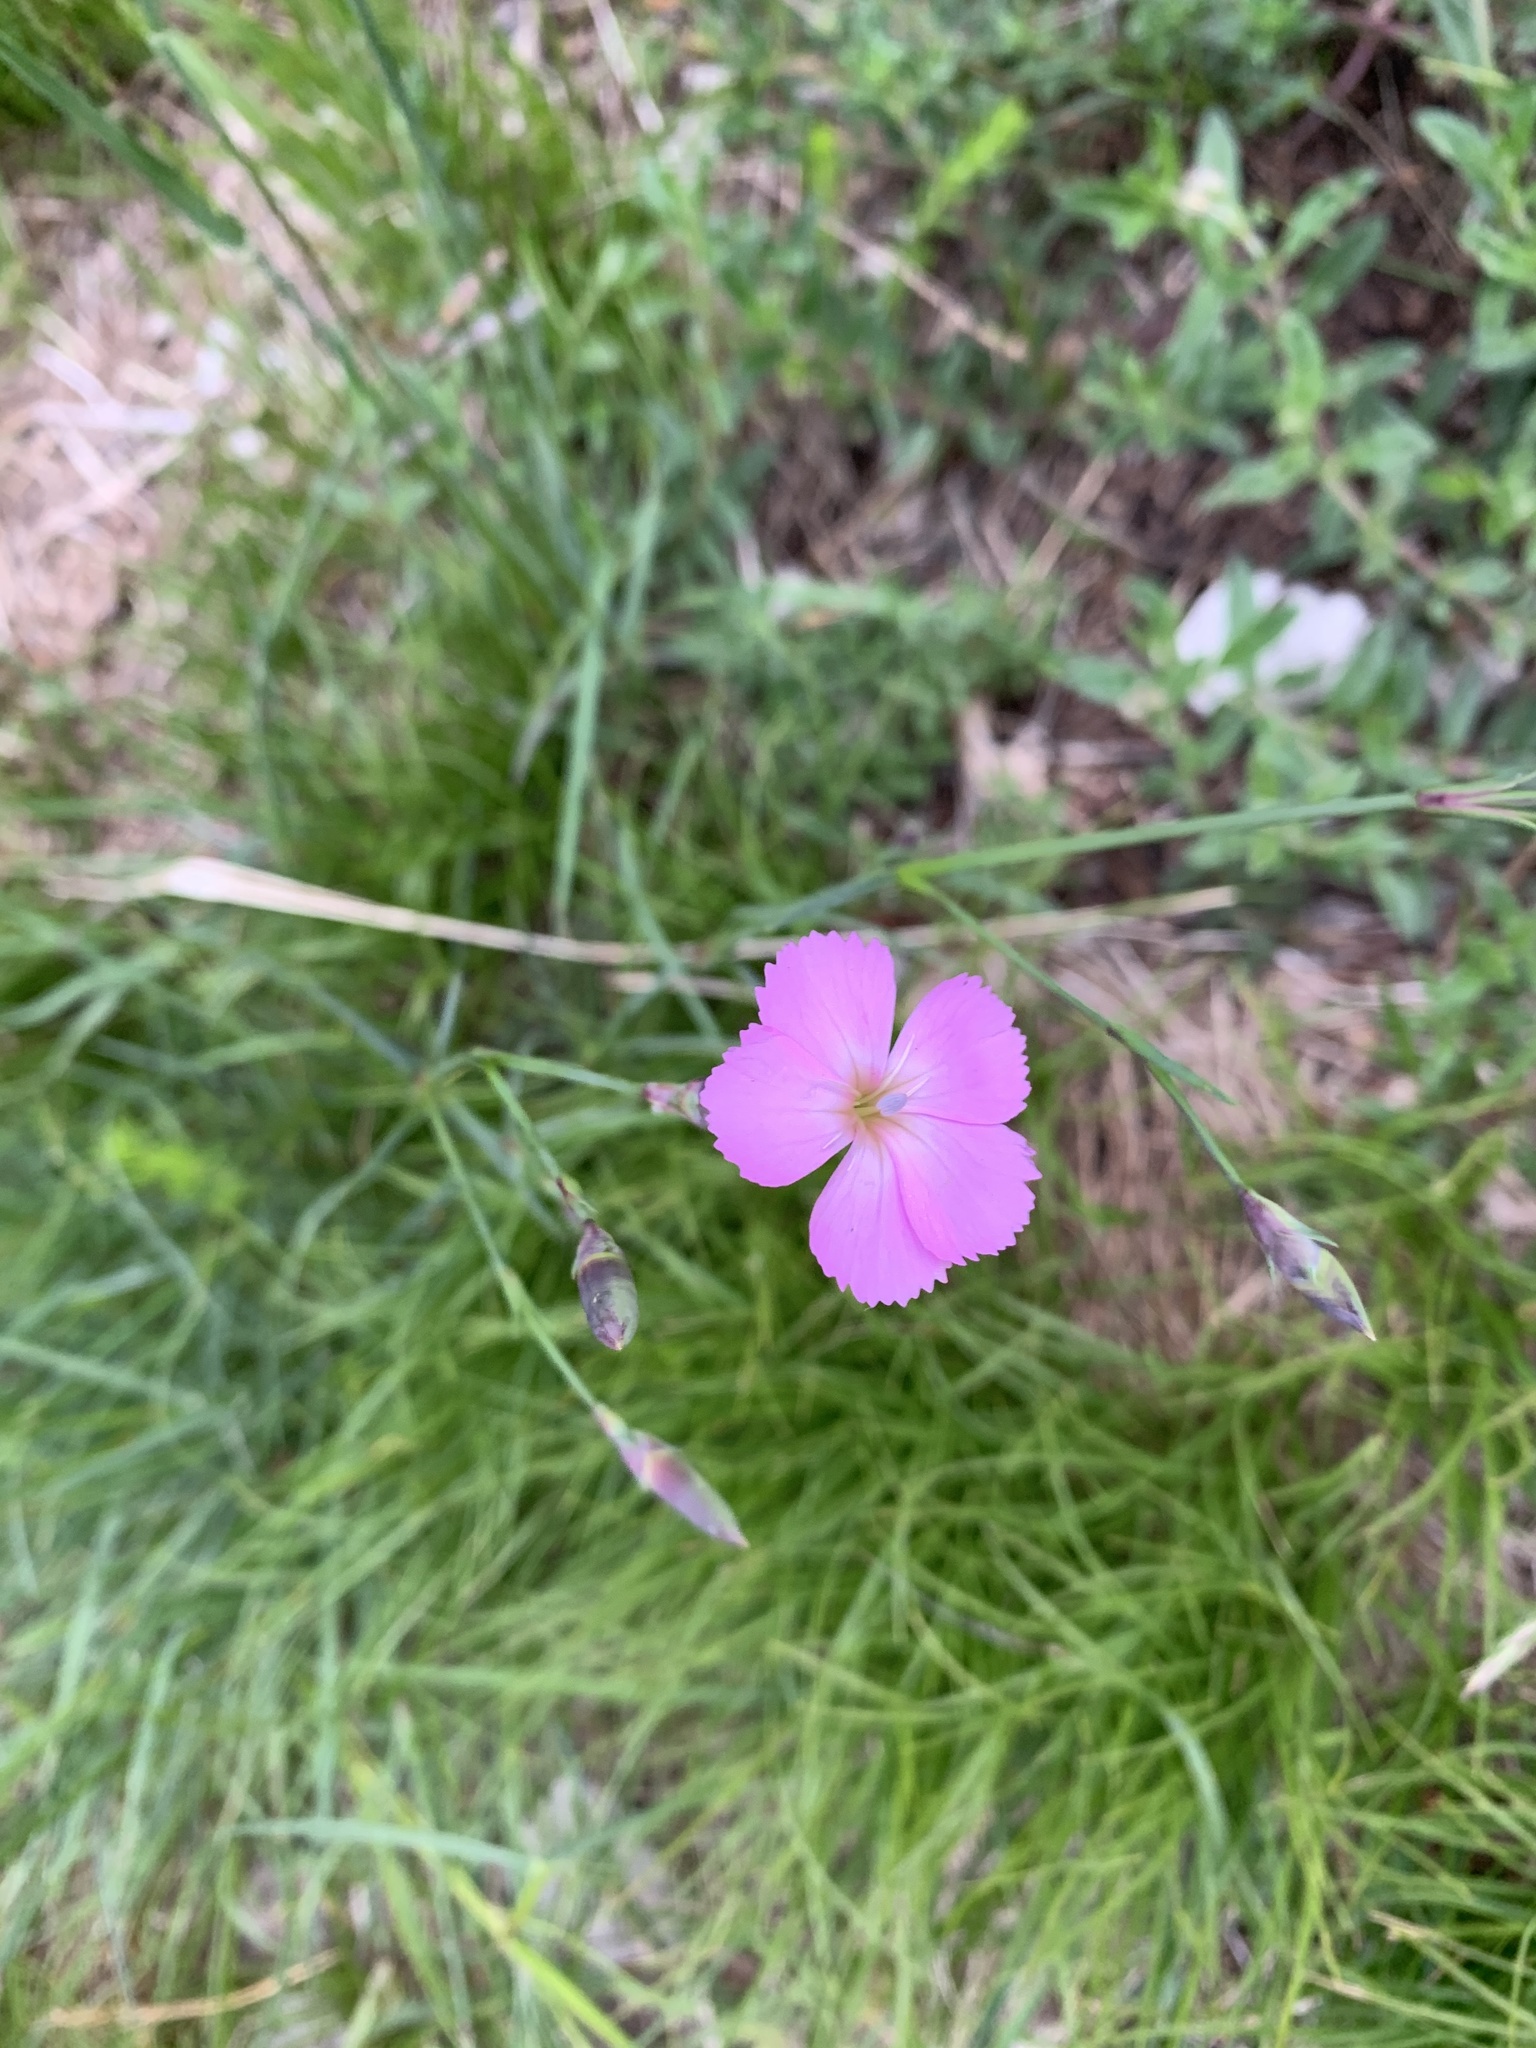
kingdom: Plantae
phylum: Tracheophyta
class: Magnoliopsida
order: Caryophyllales
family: Caryophyllaceae
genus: Dianthus
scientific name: Dianthus sylvestris
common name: Wood pink
